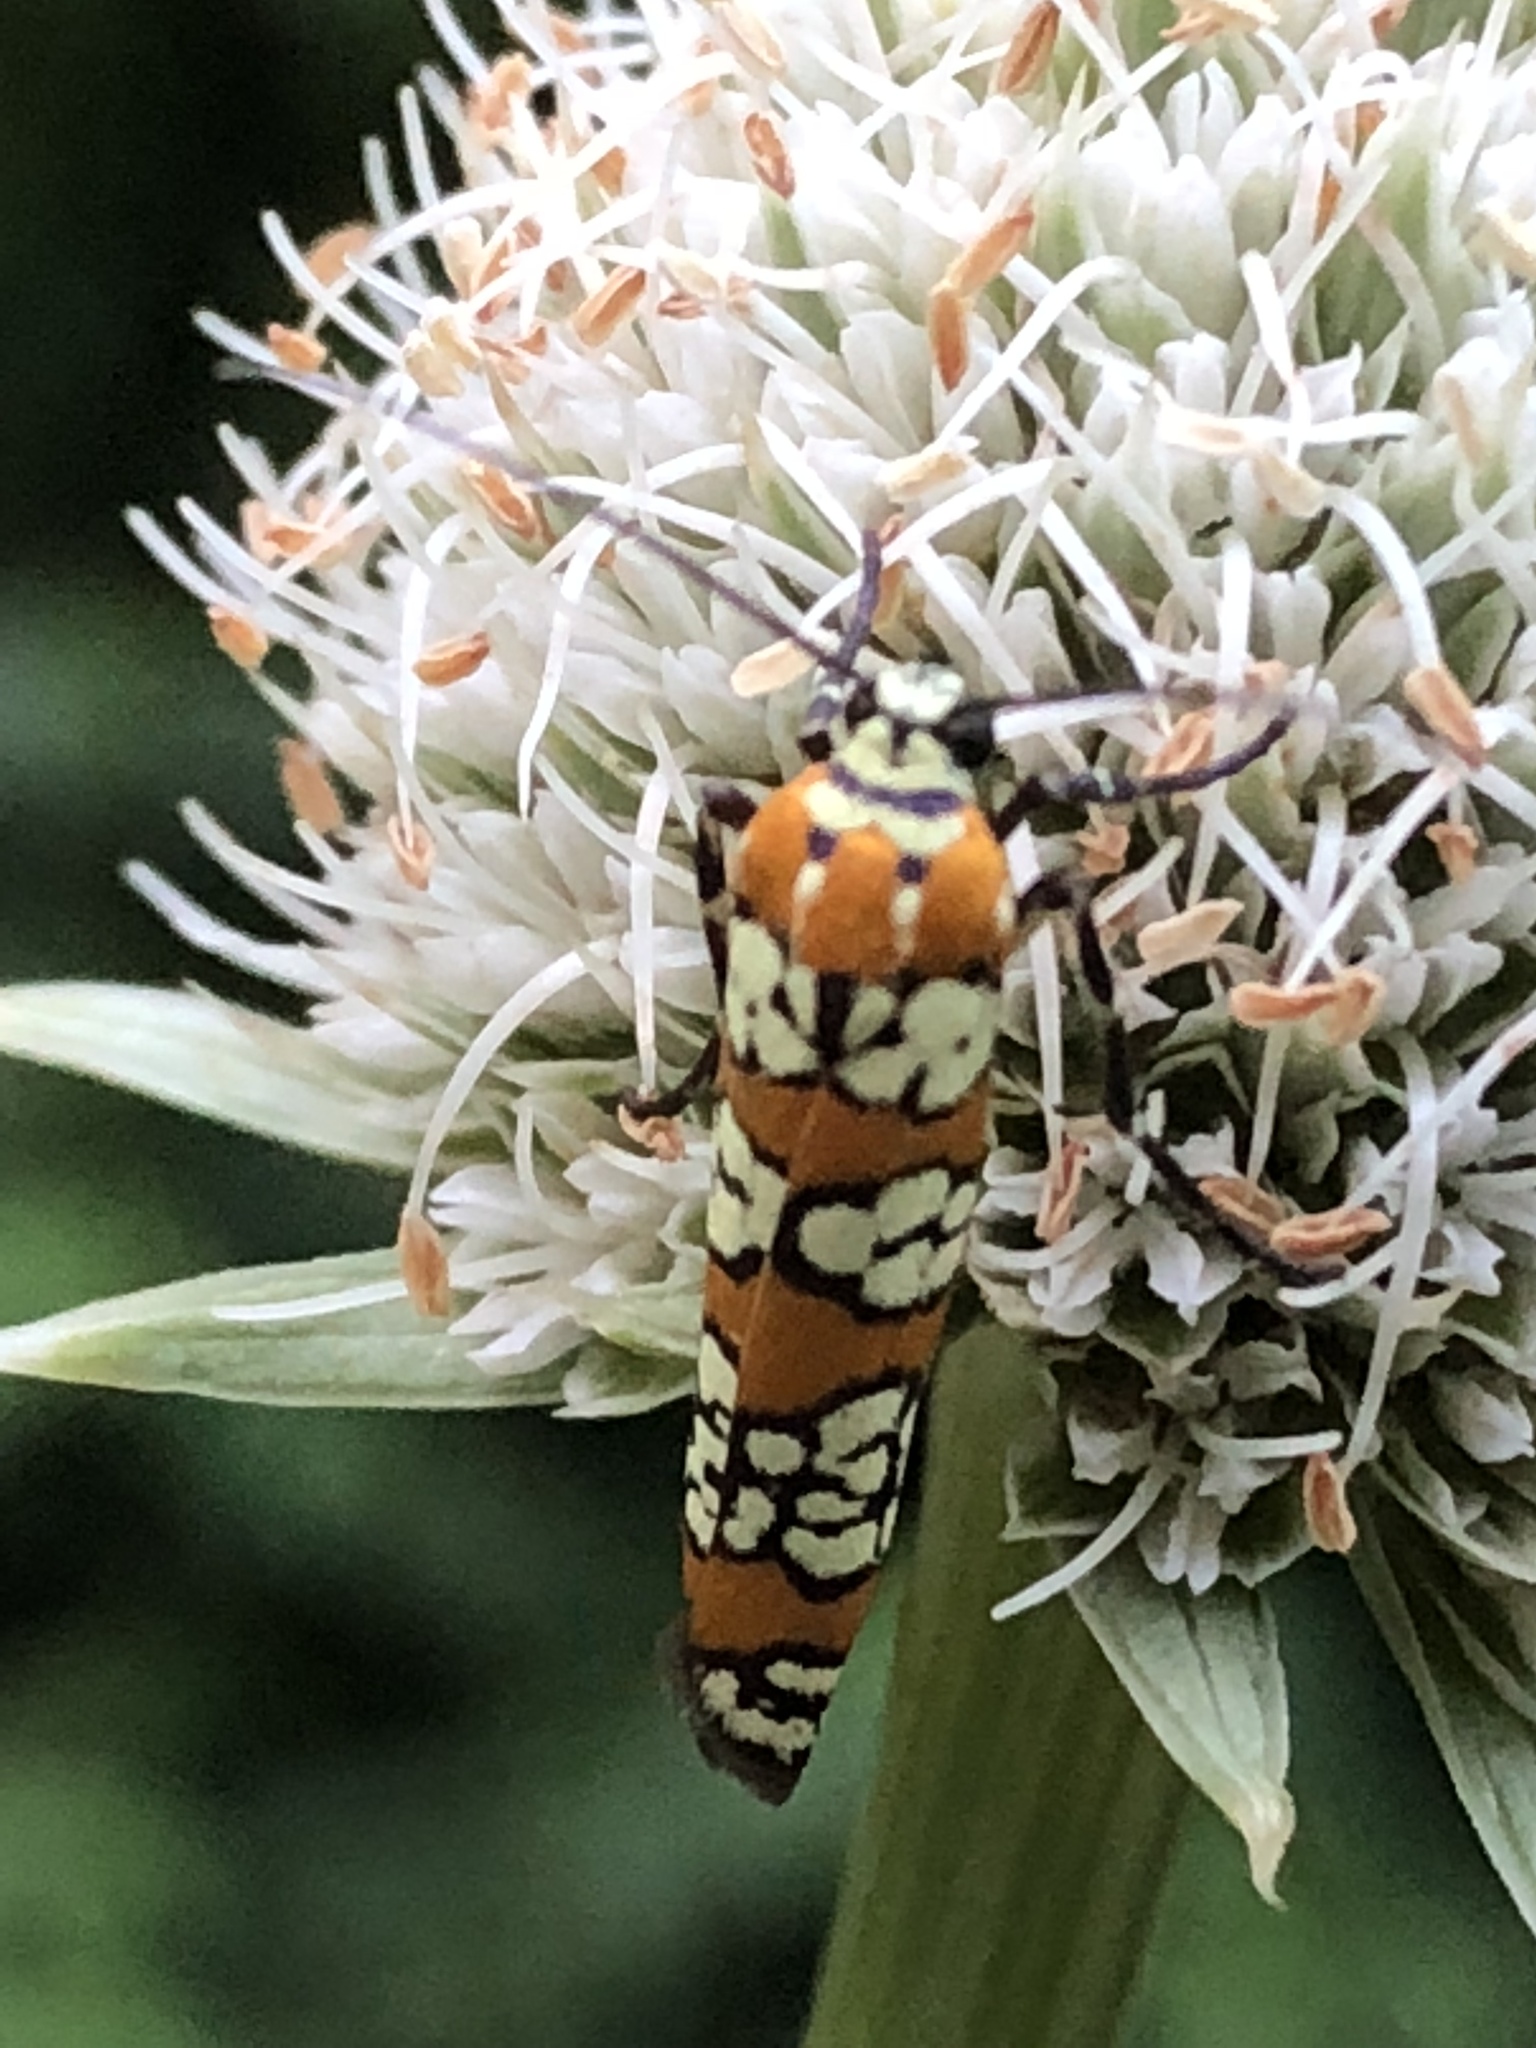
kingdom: Animalia
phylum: Arthropoda
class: Insecta
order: Lepidoptera
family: Attevidae
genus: Atteva
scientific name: Atteva punctella
